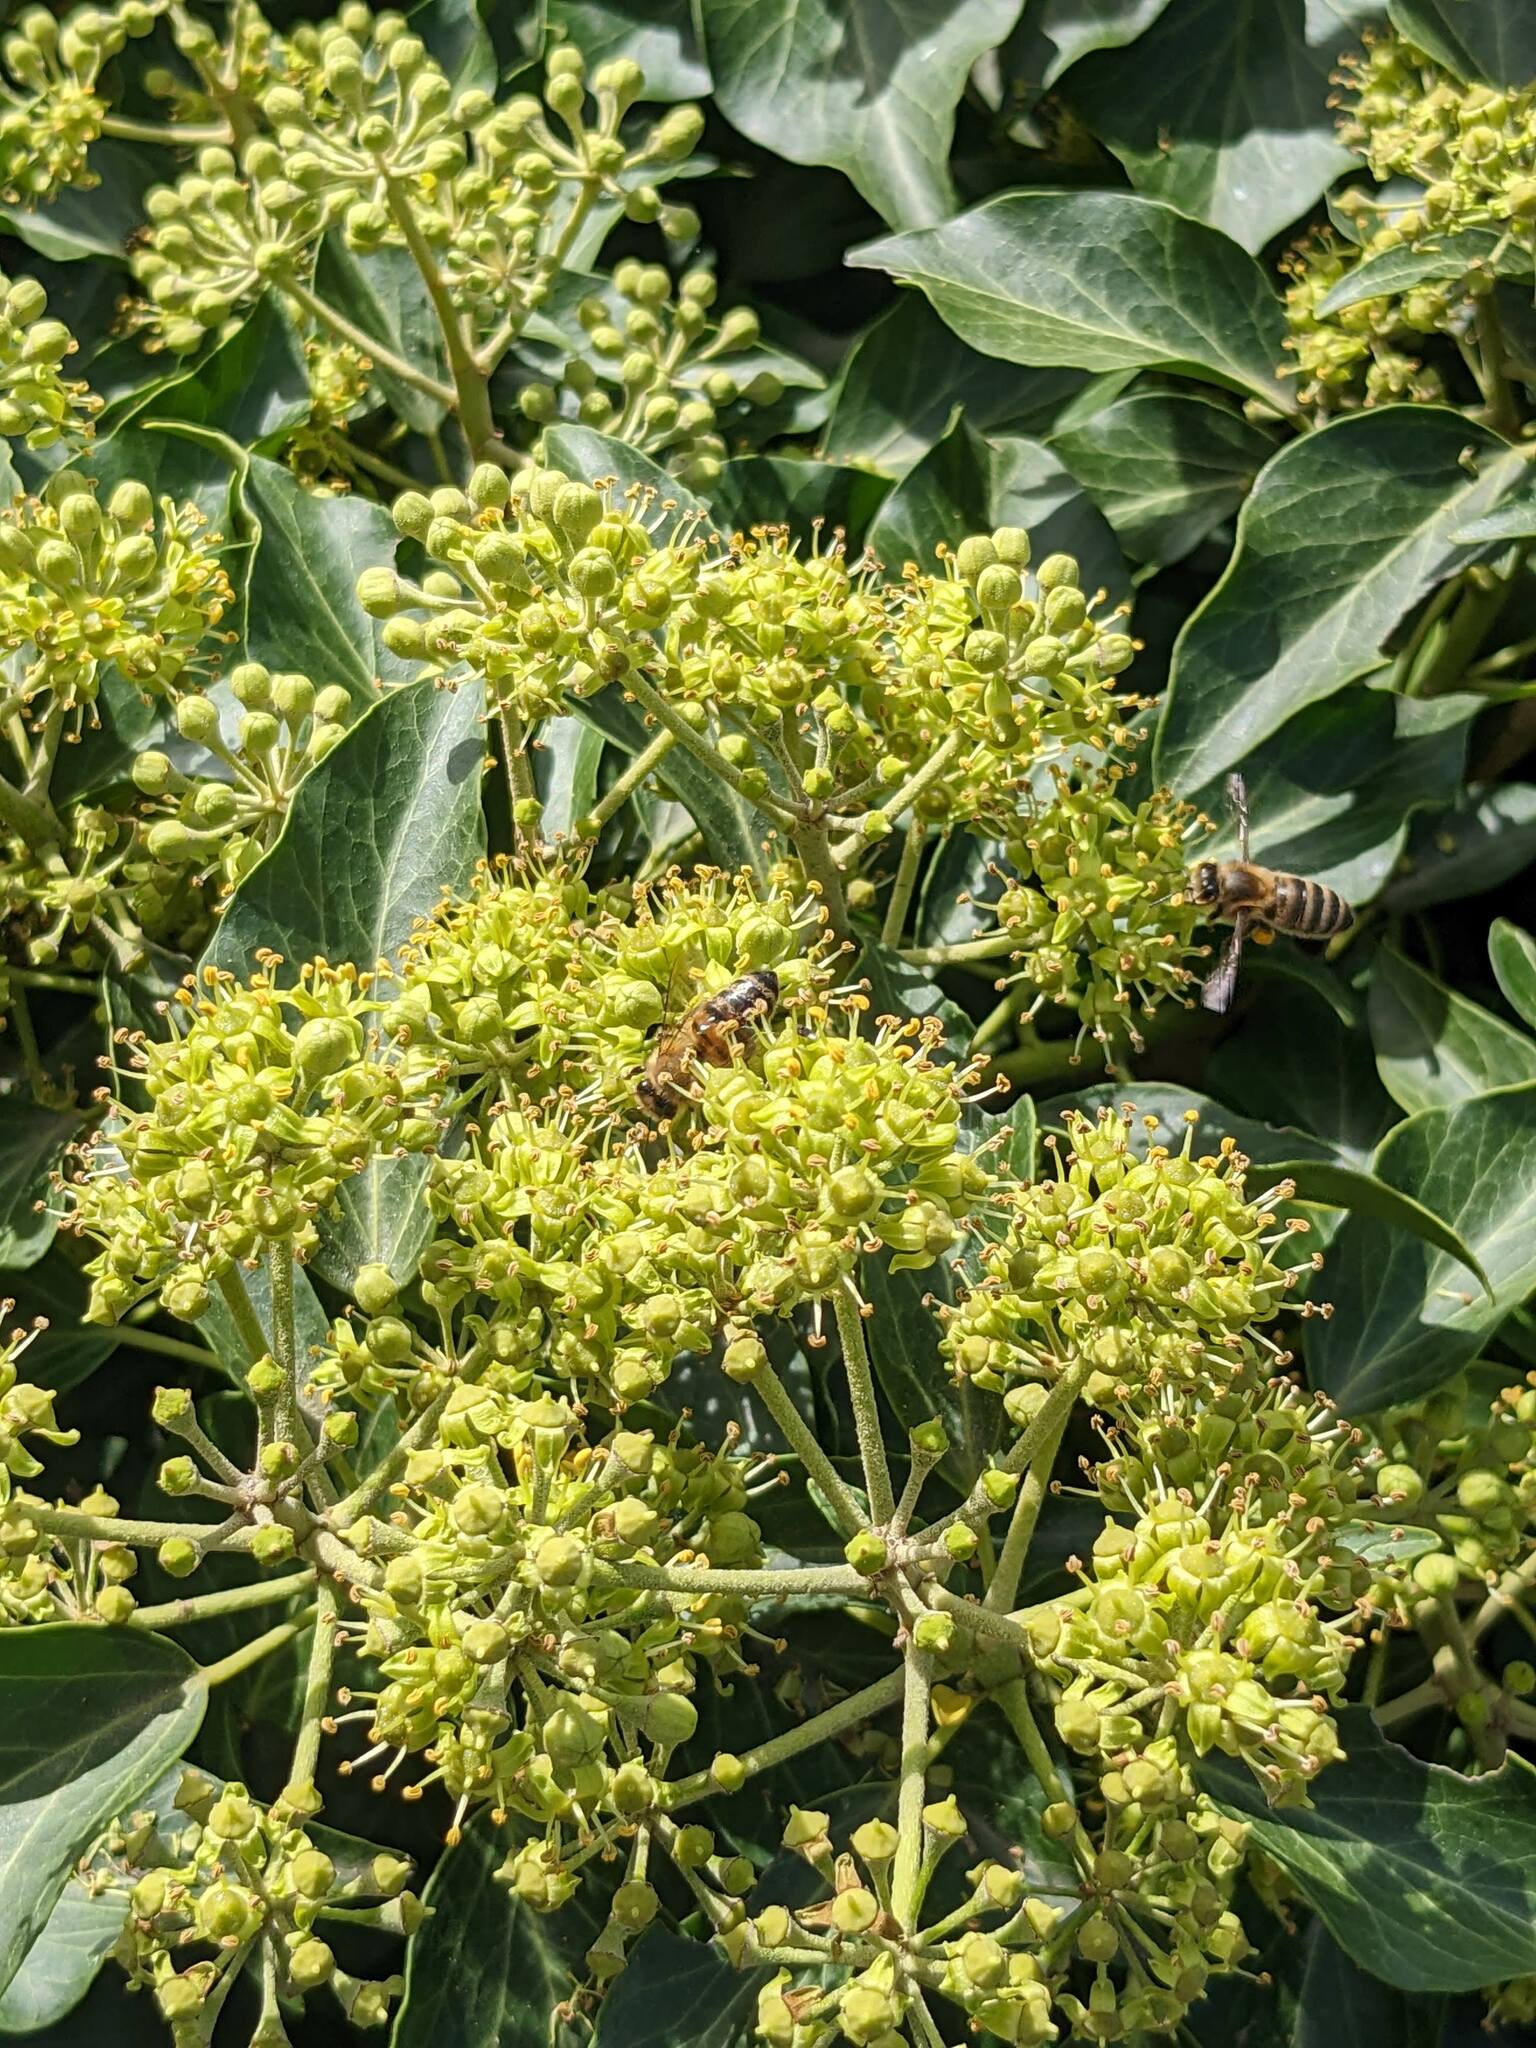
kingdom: Animalia
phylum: Arthropoda
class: Insecta
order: Hymenoptera
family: Apidae
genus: Apis
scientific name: Apis mellifera
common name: Honey bee
